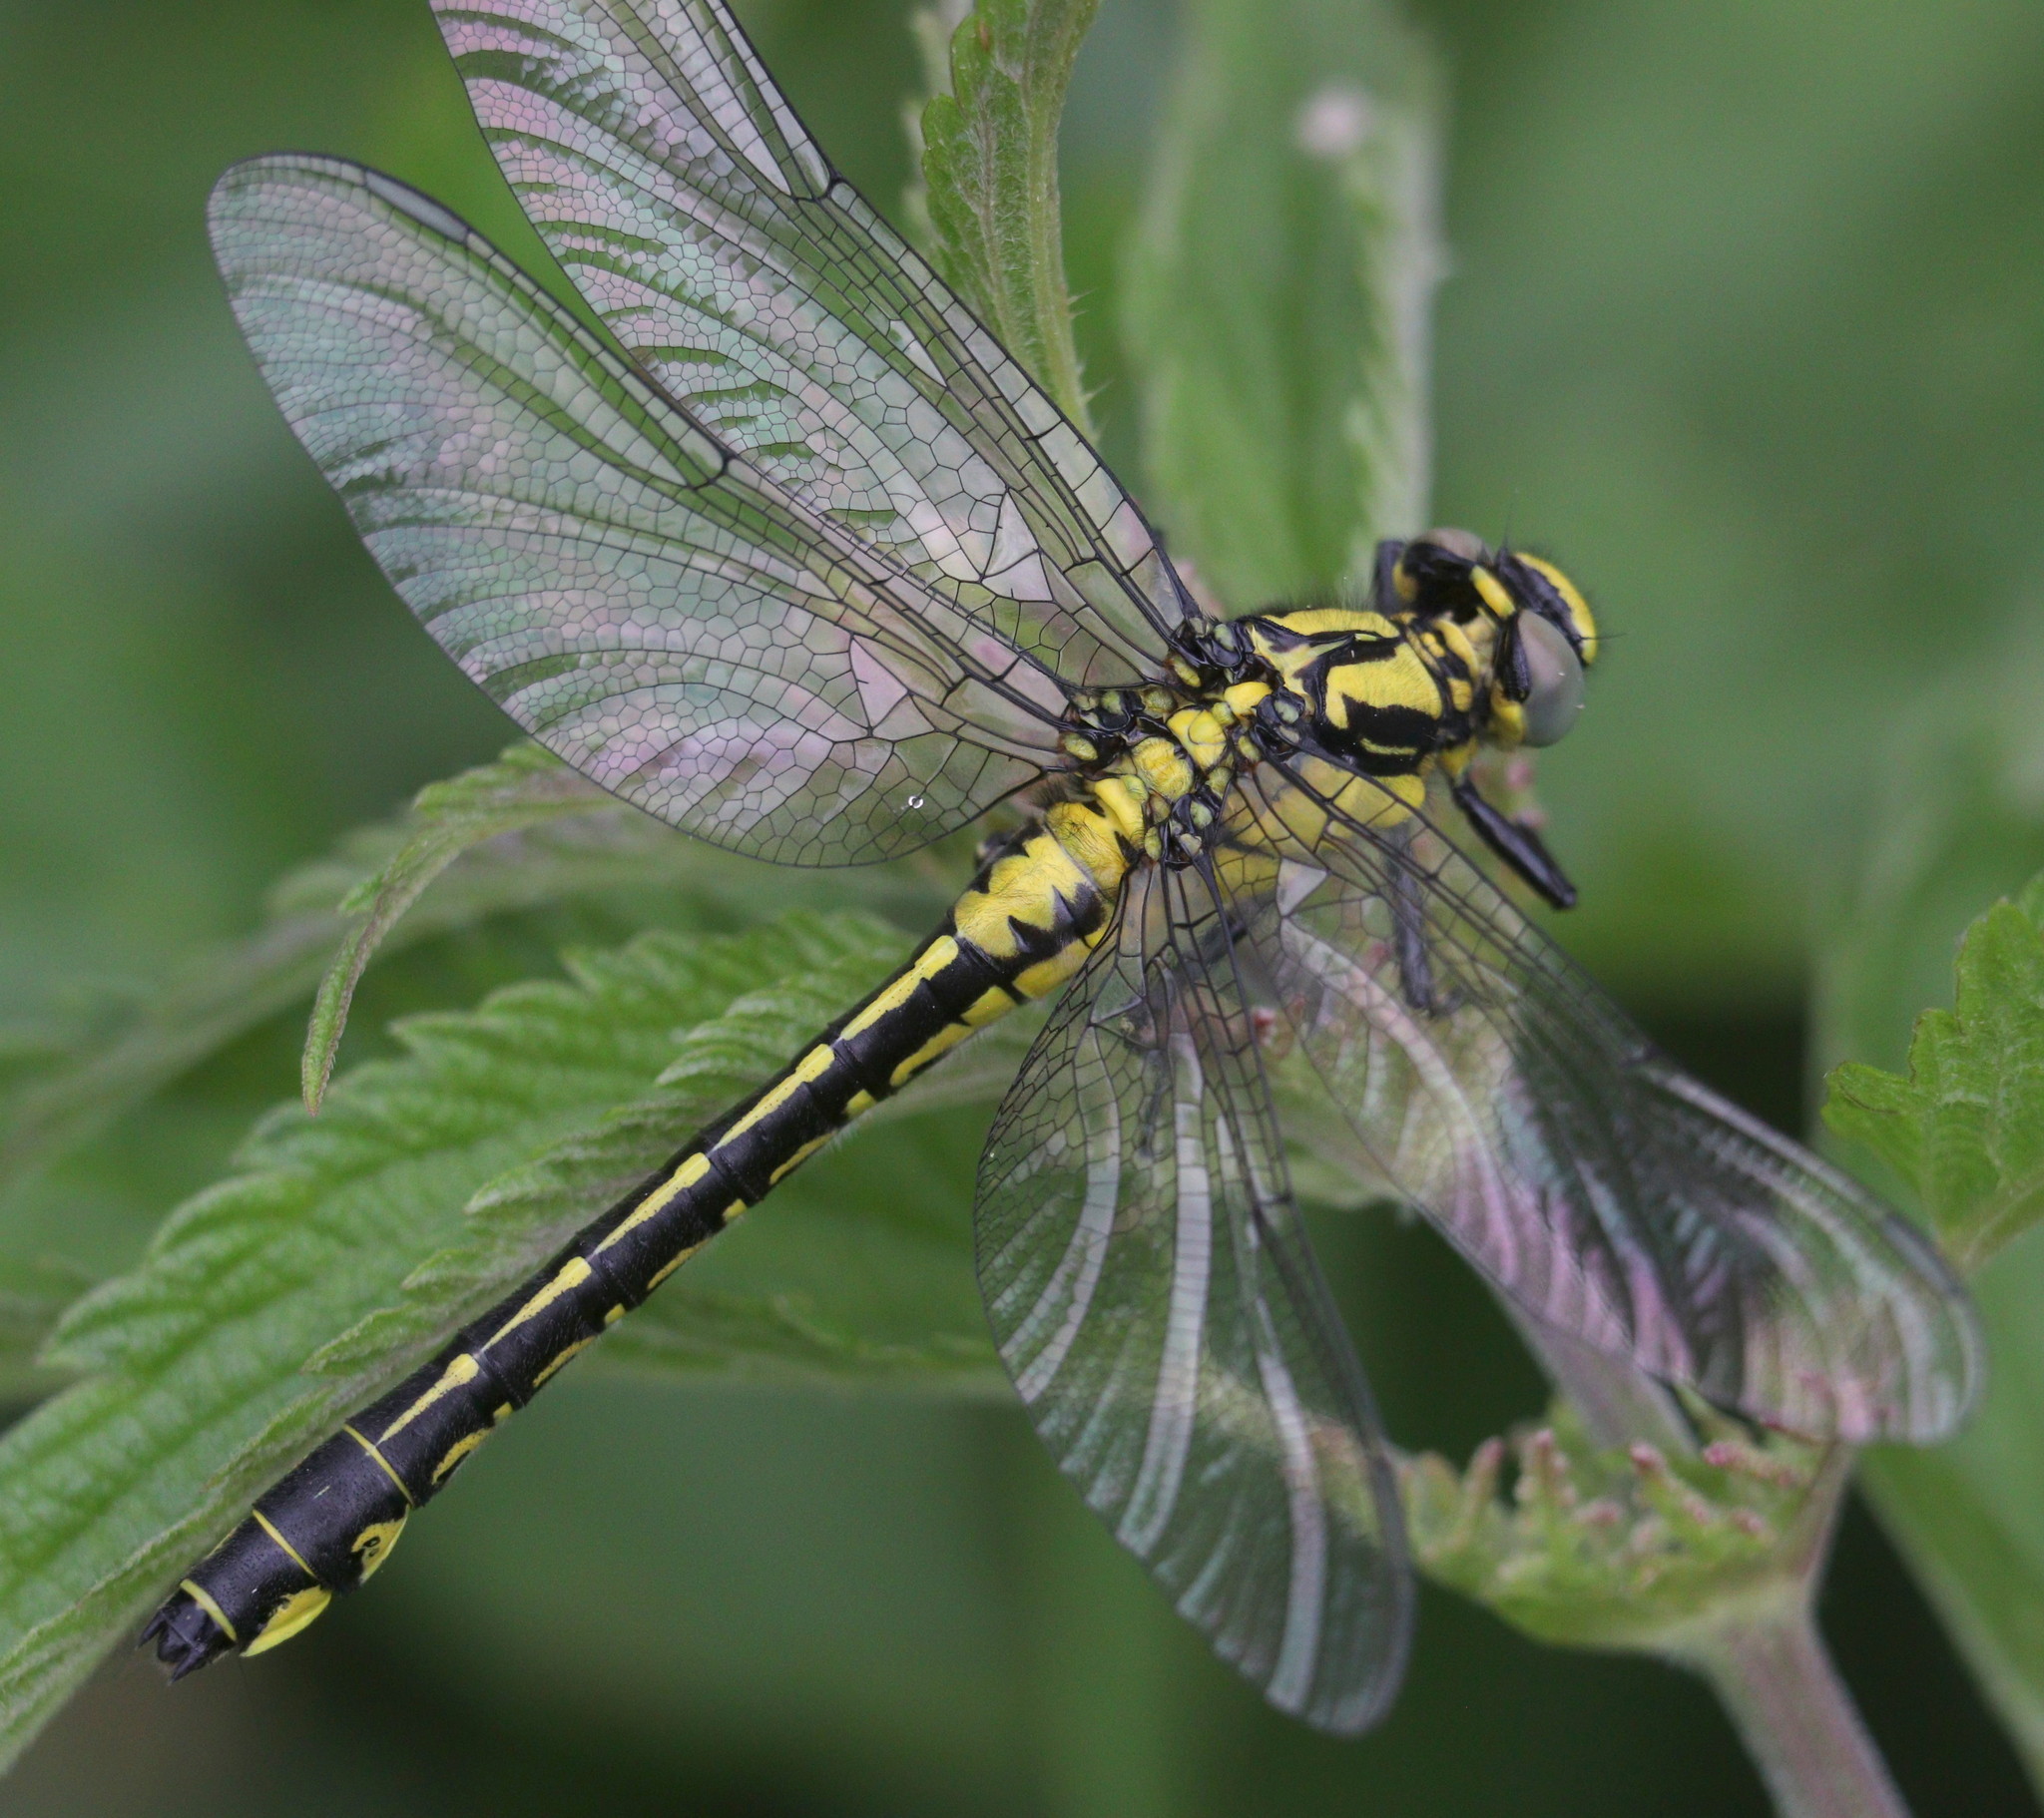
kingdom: Animalia
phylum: Arthropoda
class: Insecta
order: Odonata
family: Gomphidae
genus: Gomphus
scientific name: Gomphus vulgatissimus
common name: Club-tailed dragonfly
